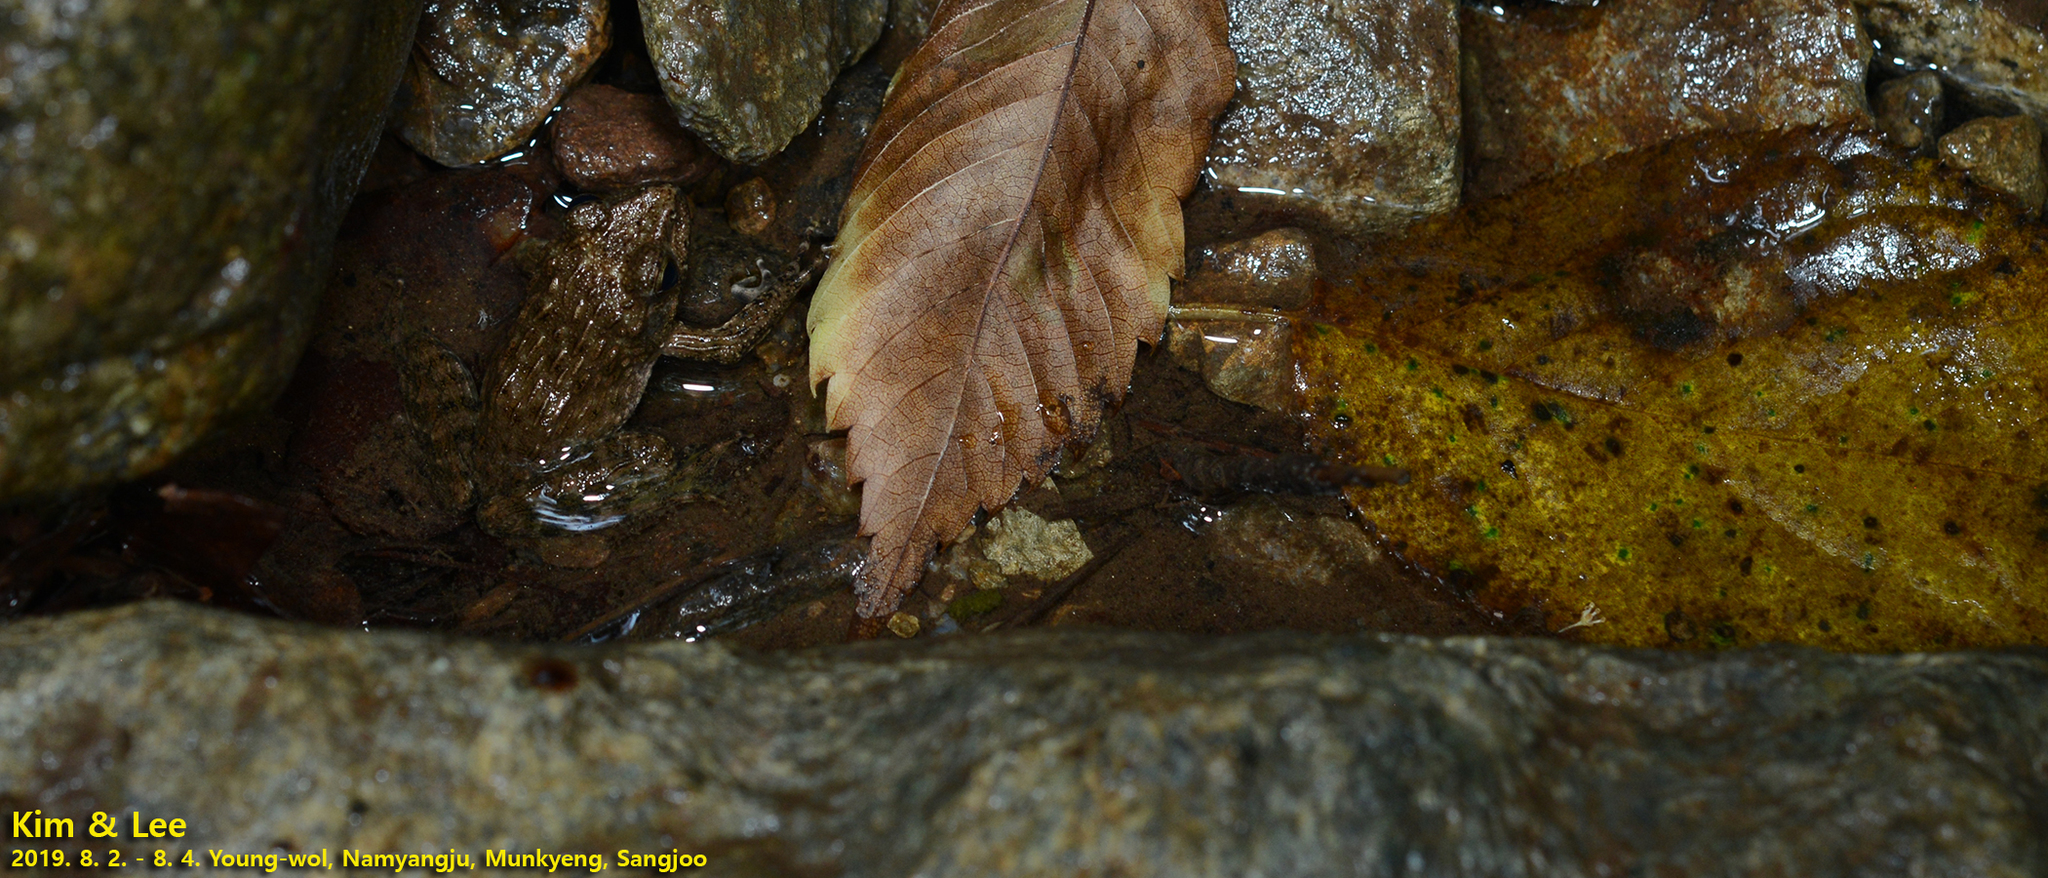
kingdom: Animalia
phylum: Chordata
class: Amphibia
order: Anura
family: Ranidae
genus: Glandirana
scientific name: Glandirana emeljanovi
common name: Northeast china rough-skinned frog
